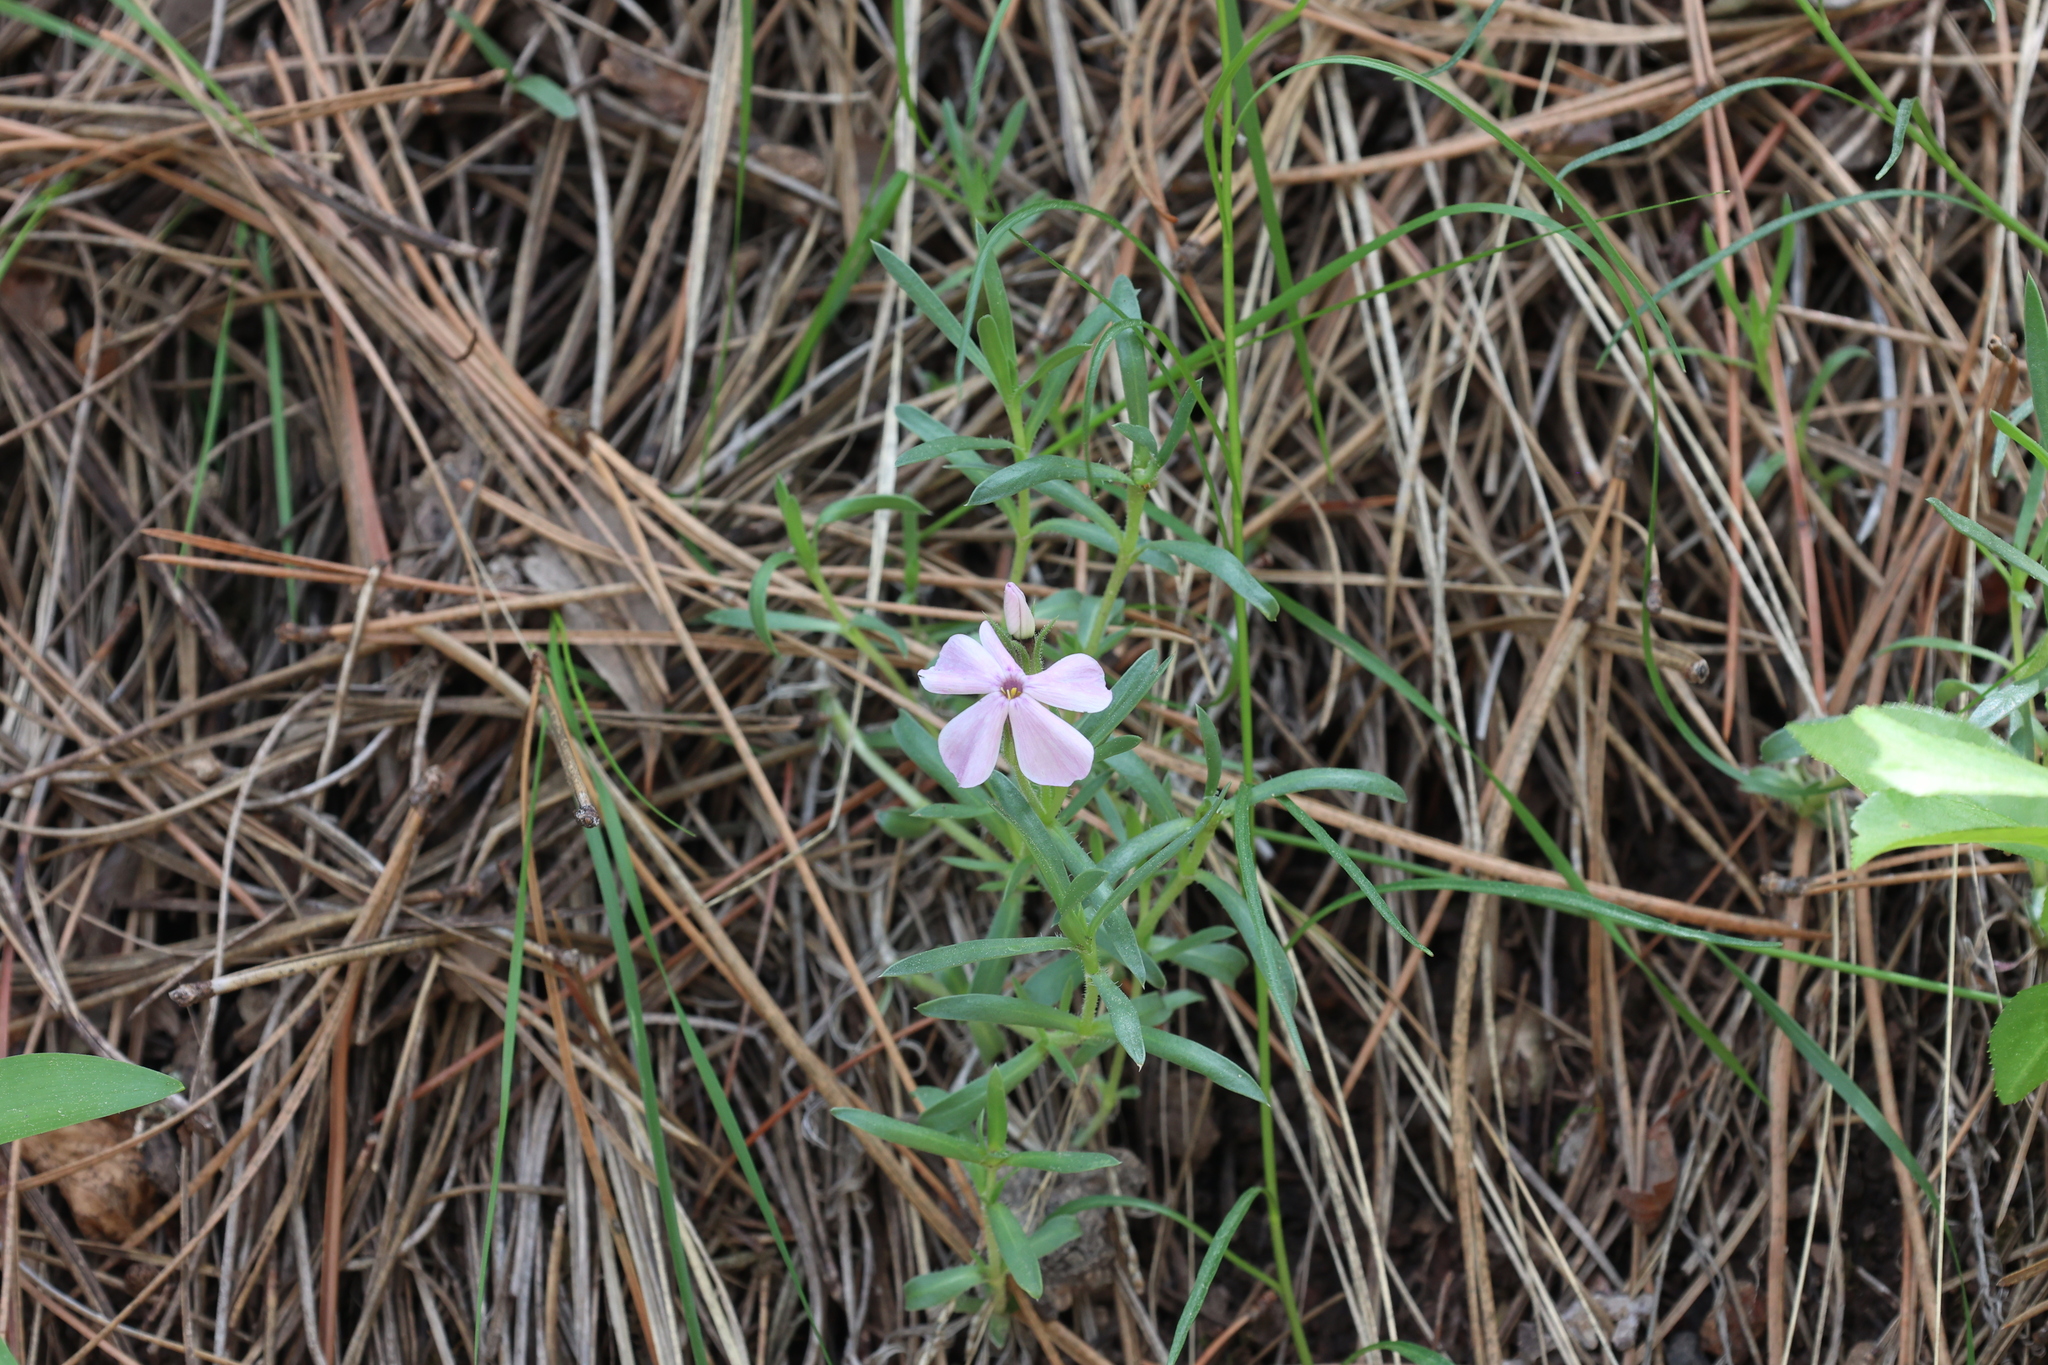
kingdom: Plantae
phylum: Tracheophyta
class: Magnoliopsida
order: Ericales
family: Polemoniaceae
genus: Phlox
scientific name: Phlox alyssifolia
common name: Blue phlox
